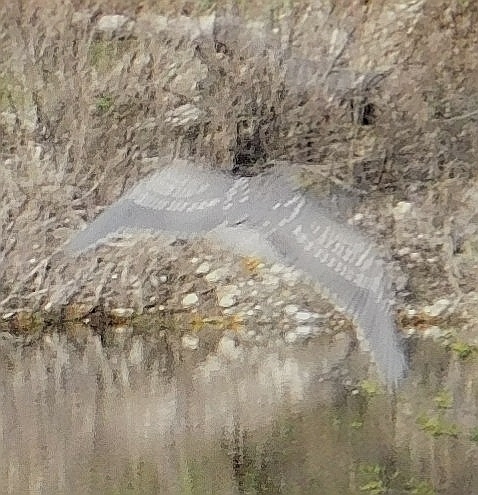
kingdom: Animalia
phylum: Chordata
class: Aves
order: Pelecaniformes
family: Ardeidae
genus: Nycticorax
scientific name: Nycticorax nycticorax
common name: Black-crowned night heron
